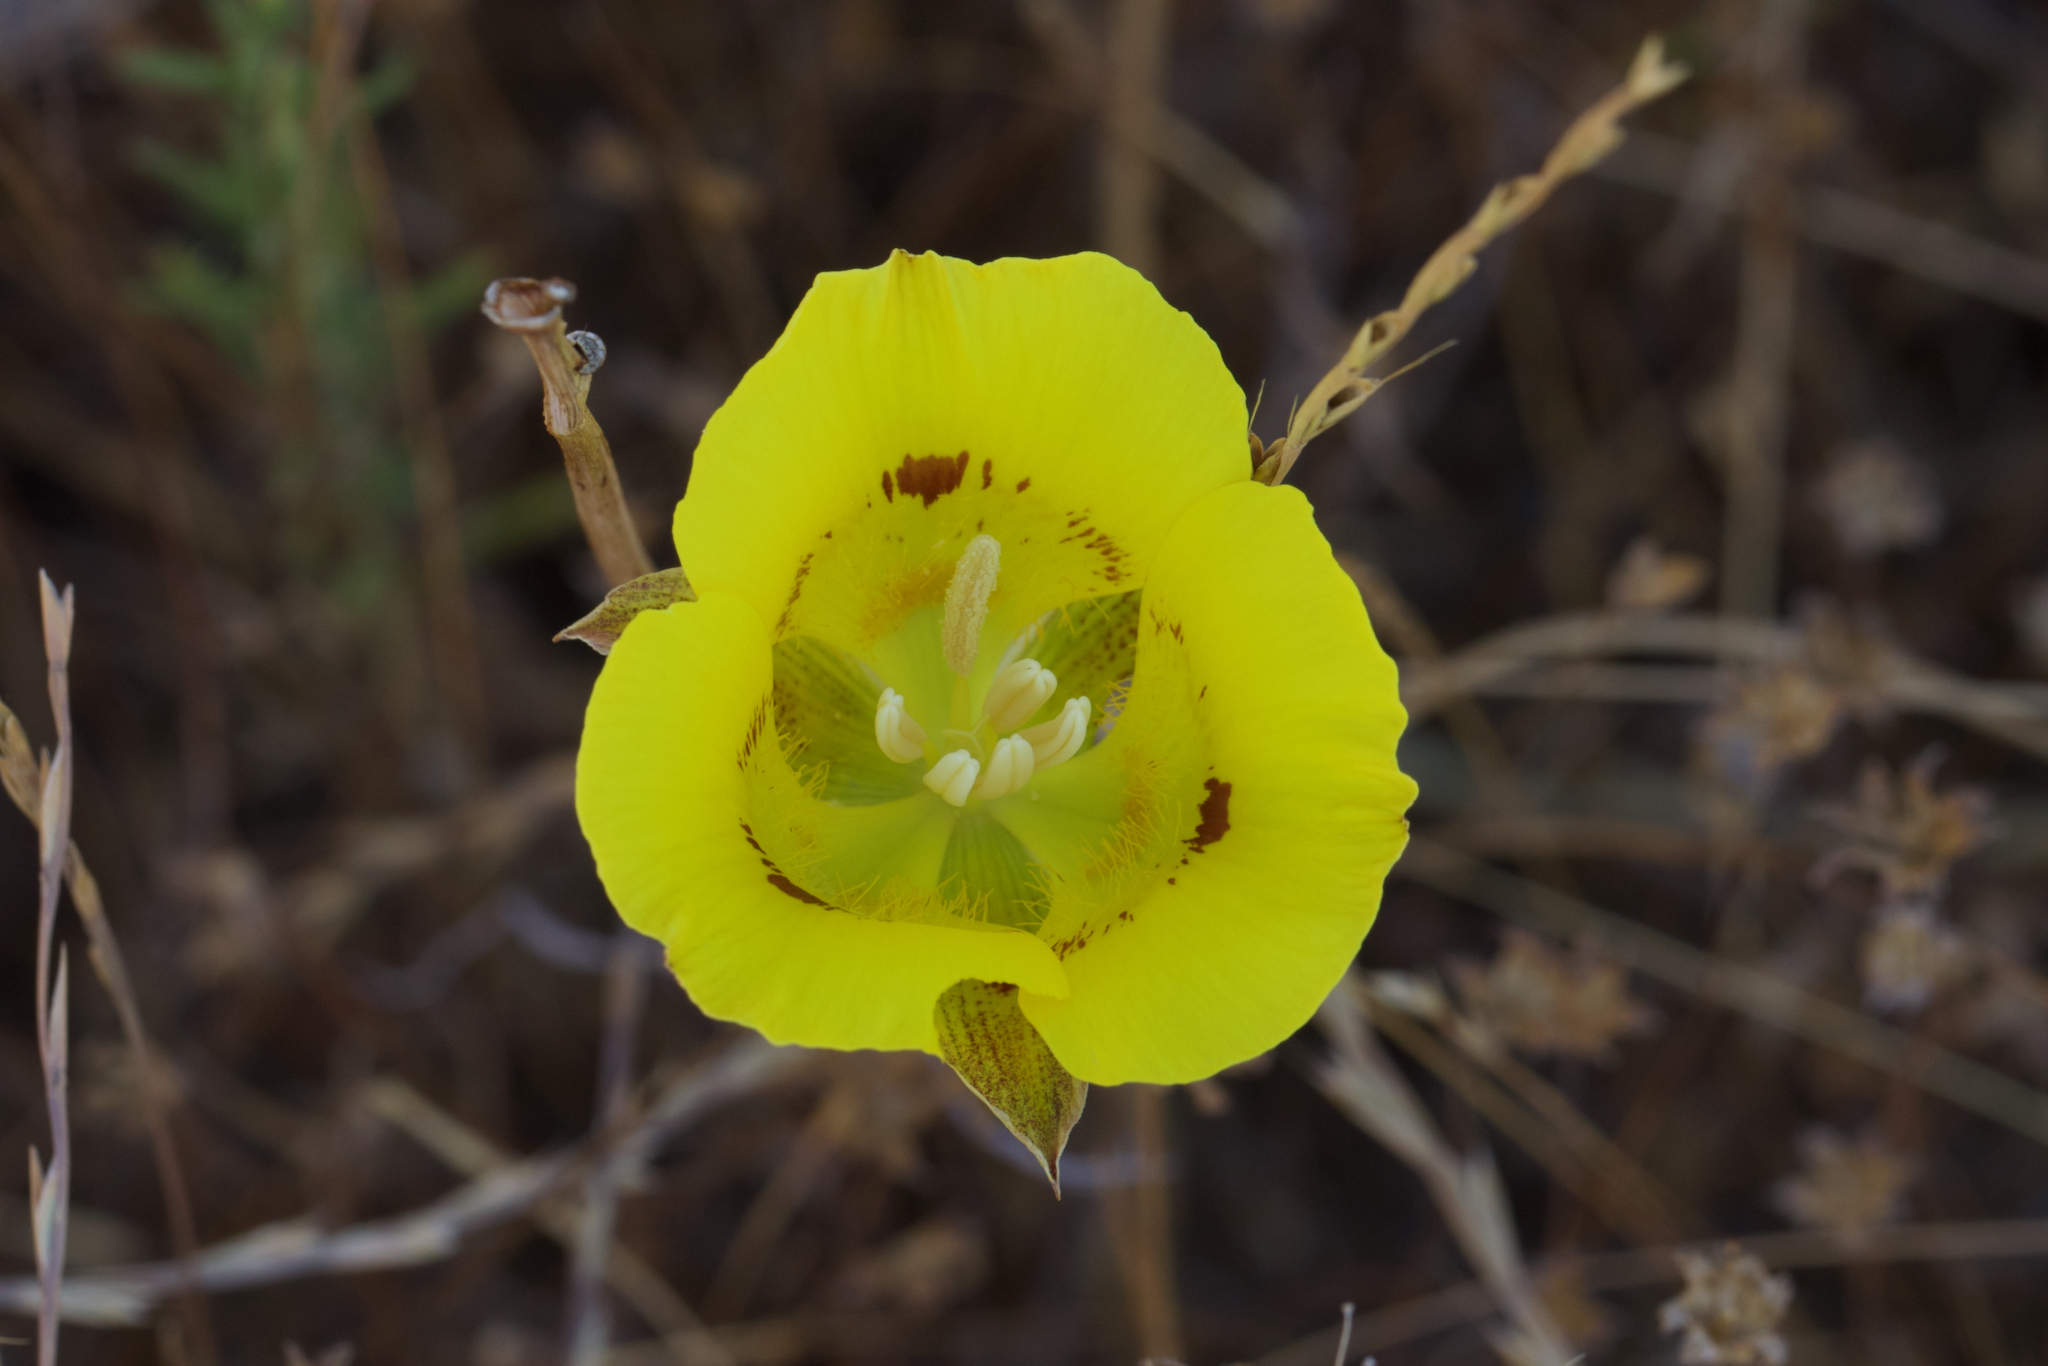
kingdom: Plantae
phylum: Tracheophyta
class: Liliopsida
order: Liliales
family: Liliaceae
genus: Calochortus
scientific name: Calochortus luteus
